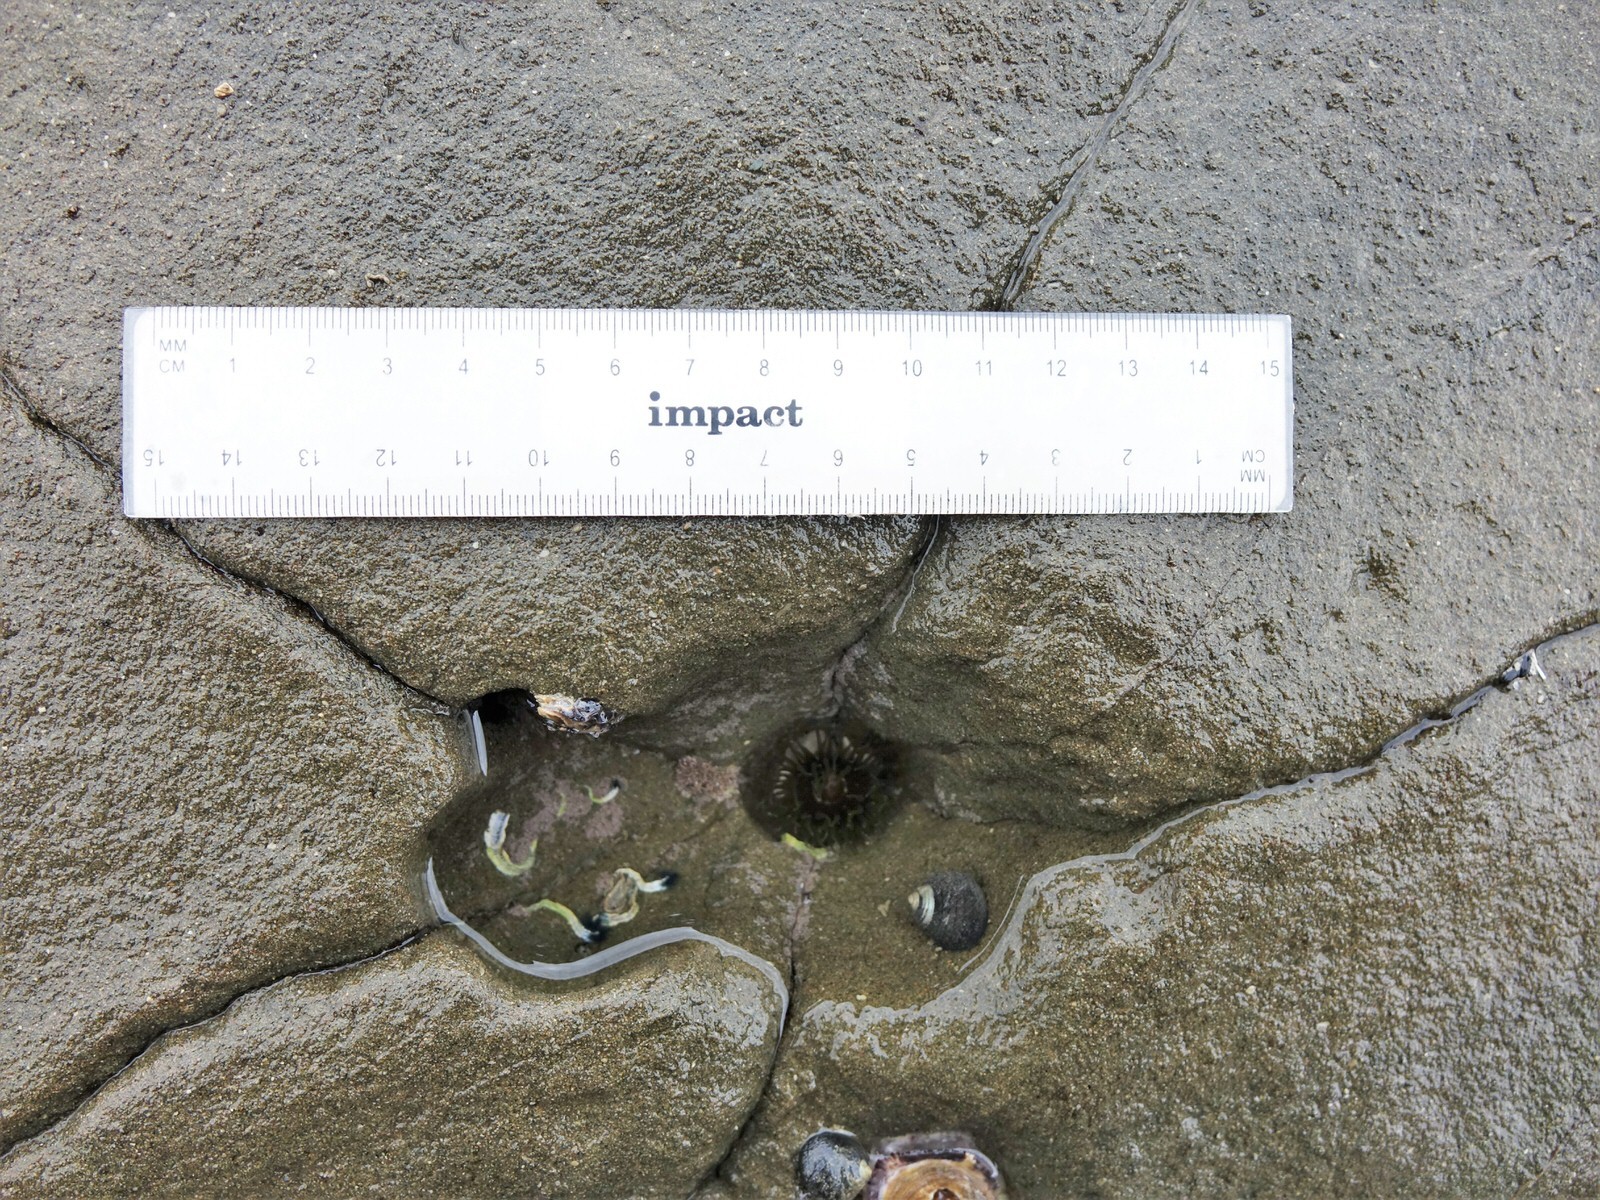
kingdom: Animalia
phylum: Cnidaria
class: Anthozoa
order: Actiniaria
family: Actiniidae
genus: Isactinia
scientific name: Isactinia olivacea
